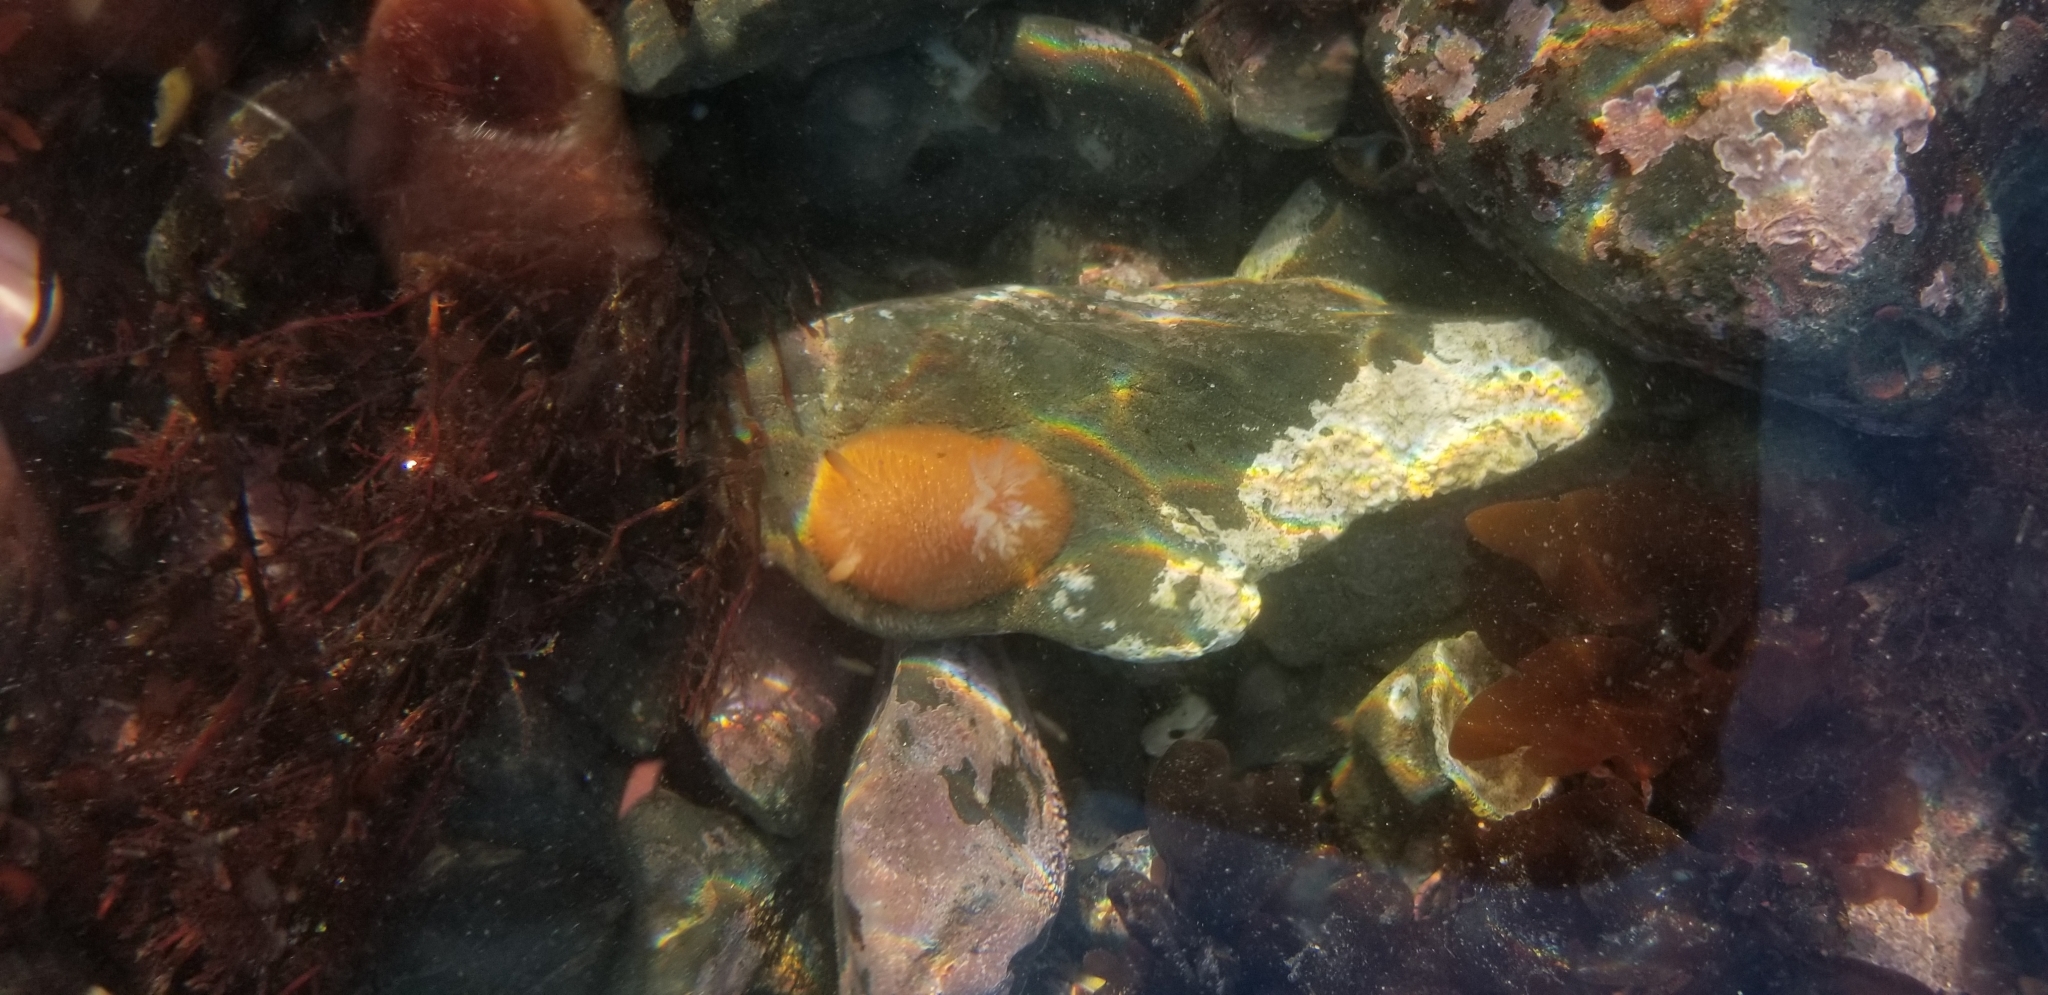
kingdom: Animalia
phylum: Mollusca
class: Gastropoda
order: Nudibranchia
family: Onchidorididae
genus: Acanthodoris
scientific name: Acanthodoris lutea
